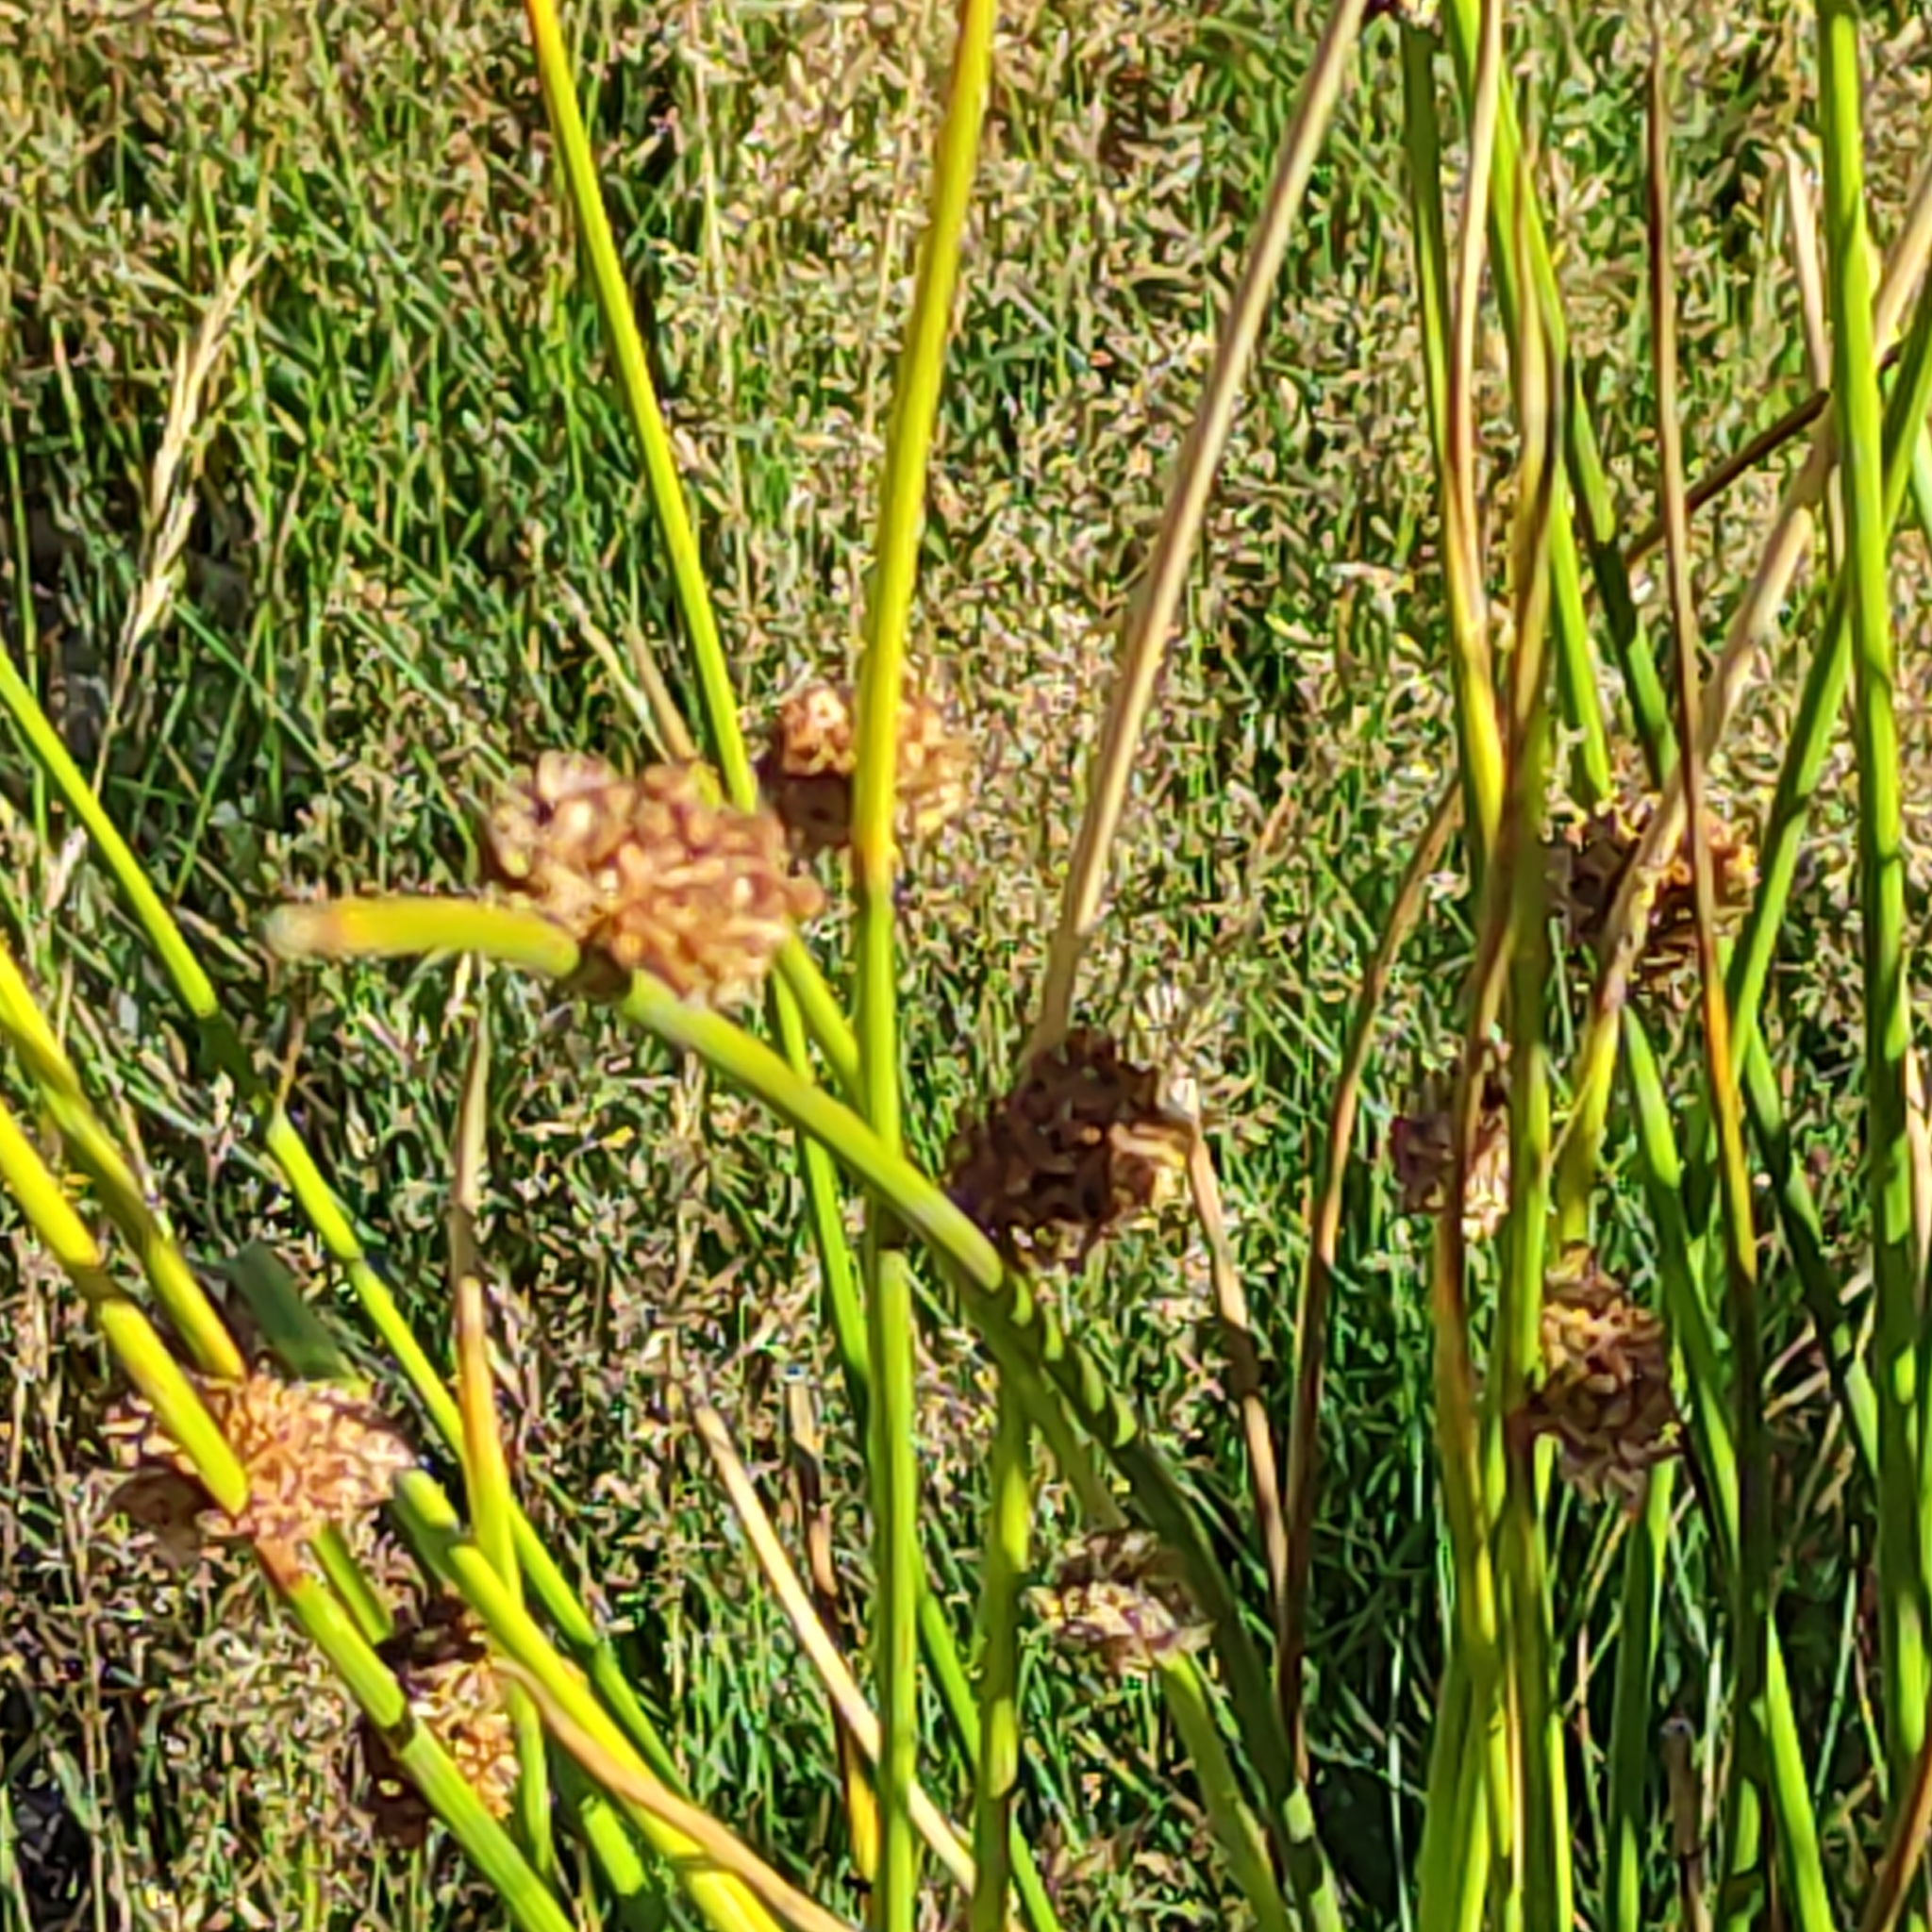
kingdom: Plantae
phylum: Tracheophyta
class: Liliopsida
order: Poales
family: Cyperaceae
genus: Ficinia
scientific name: Ficinia nodosa
